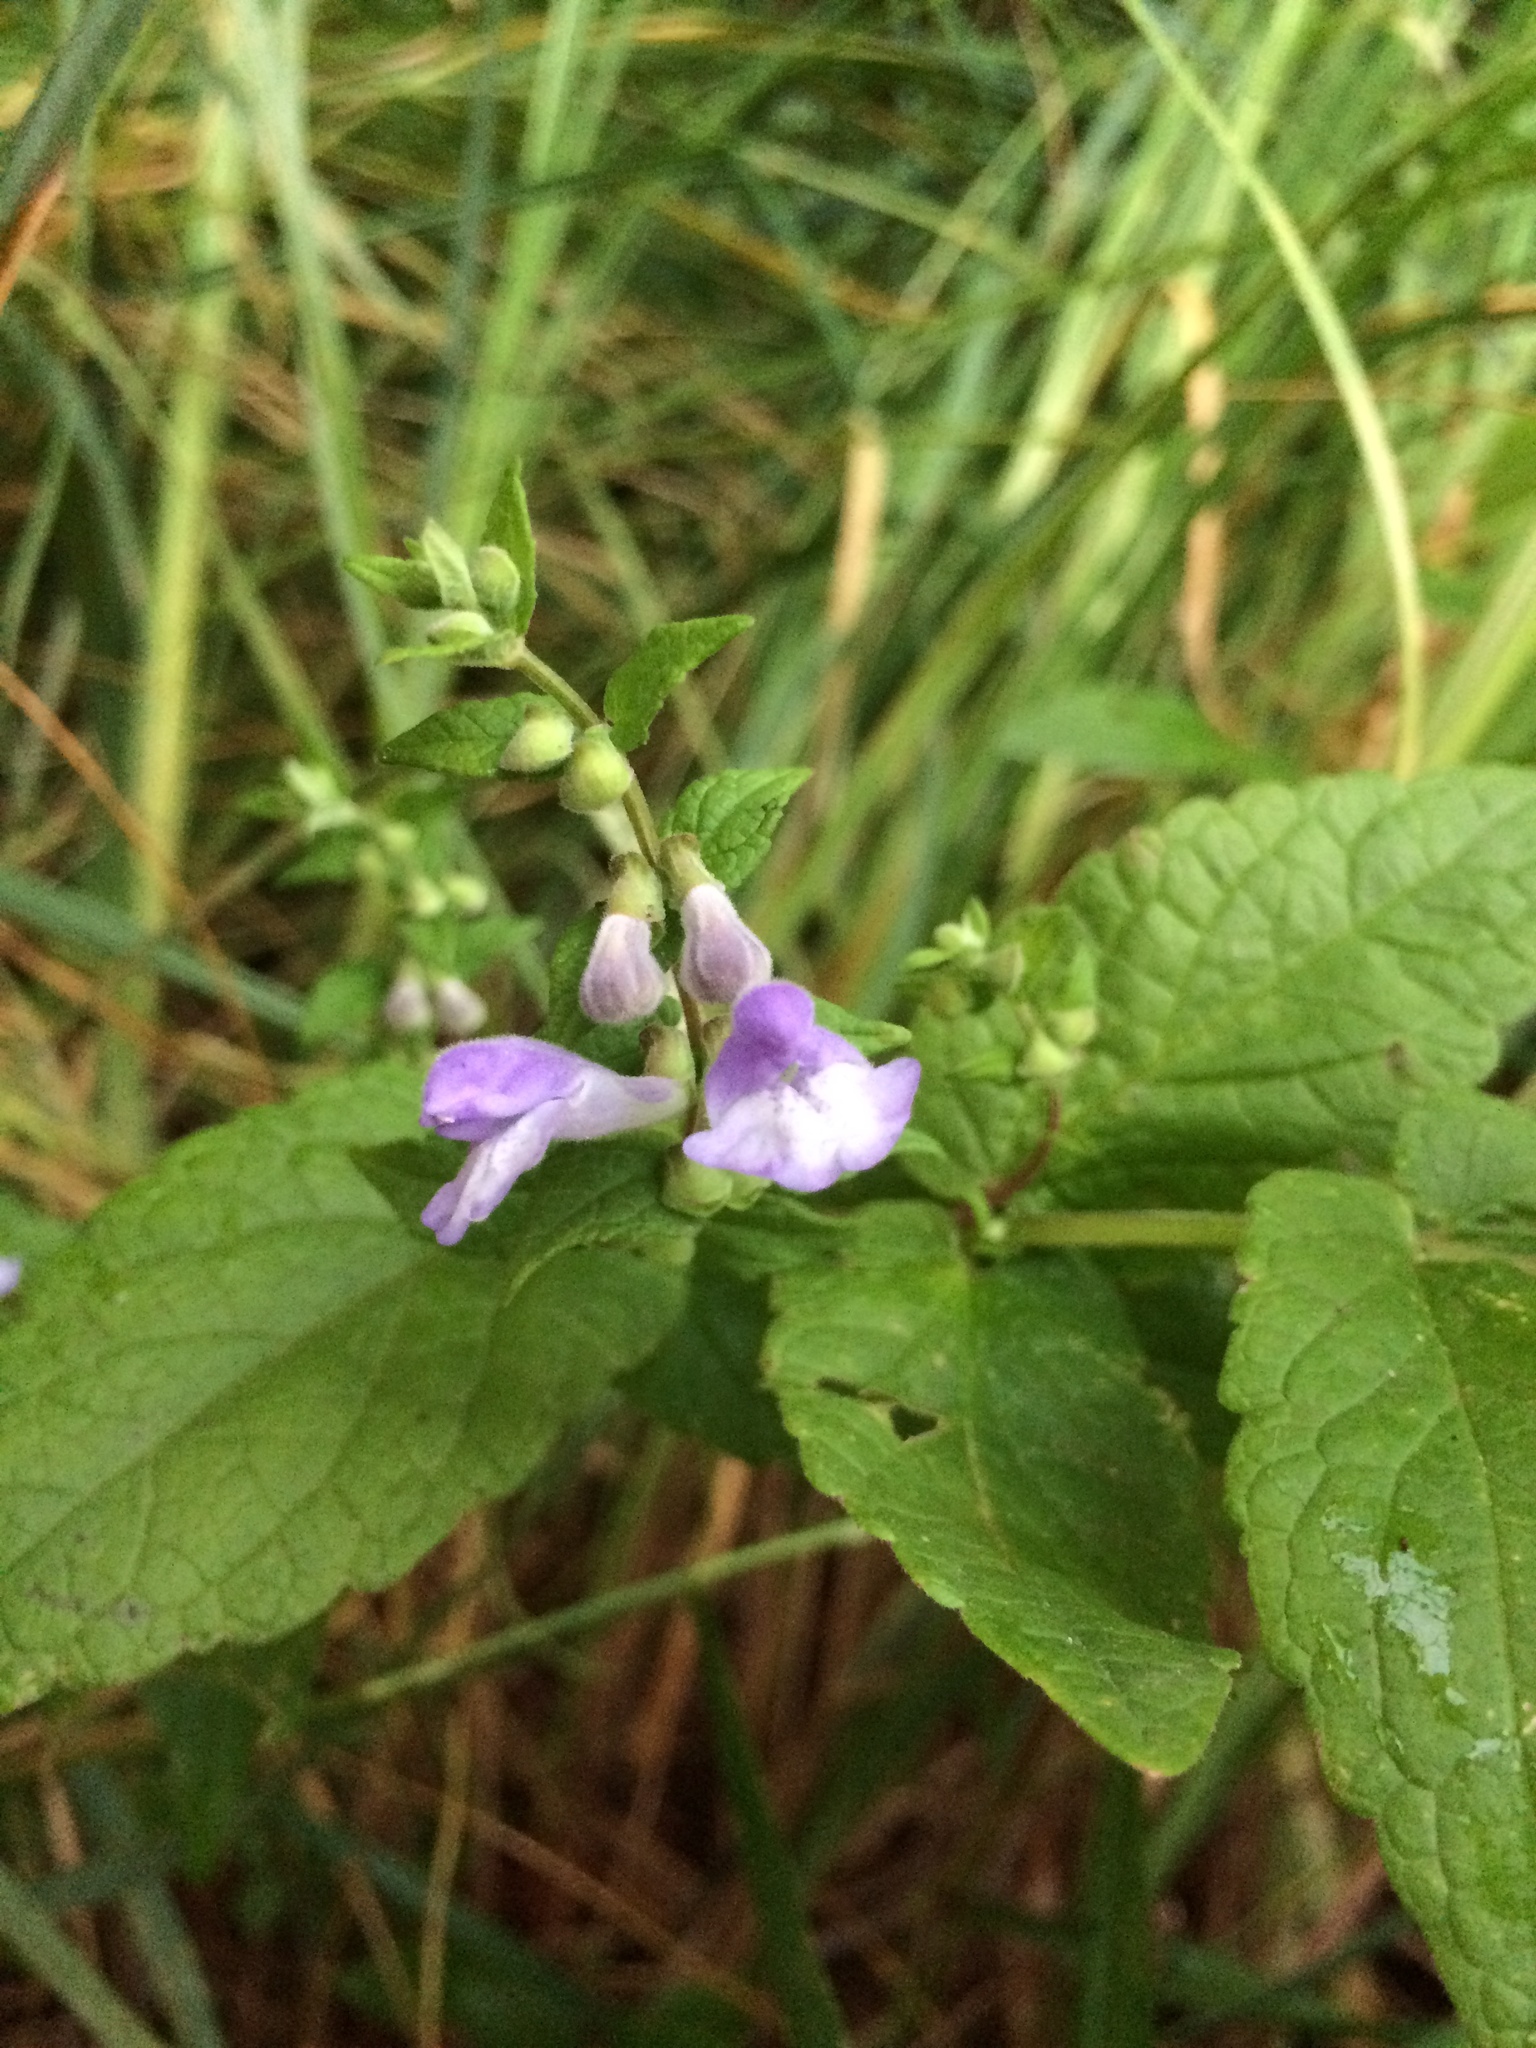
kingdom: Plantae
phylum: Tracheophyta
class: Magnoliopsida
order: Lamiales
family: Lamiaceae
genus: Scutellaria
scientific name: Scutellaria galericulata
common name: Skullcap
